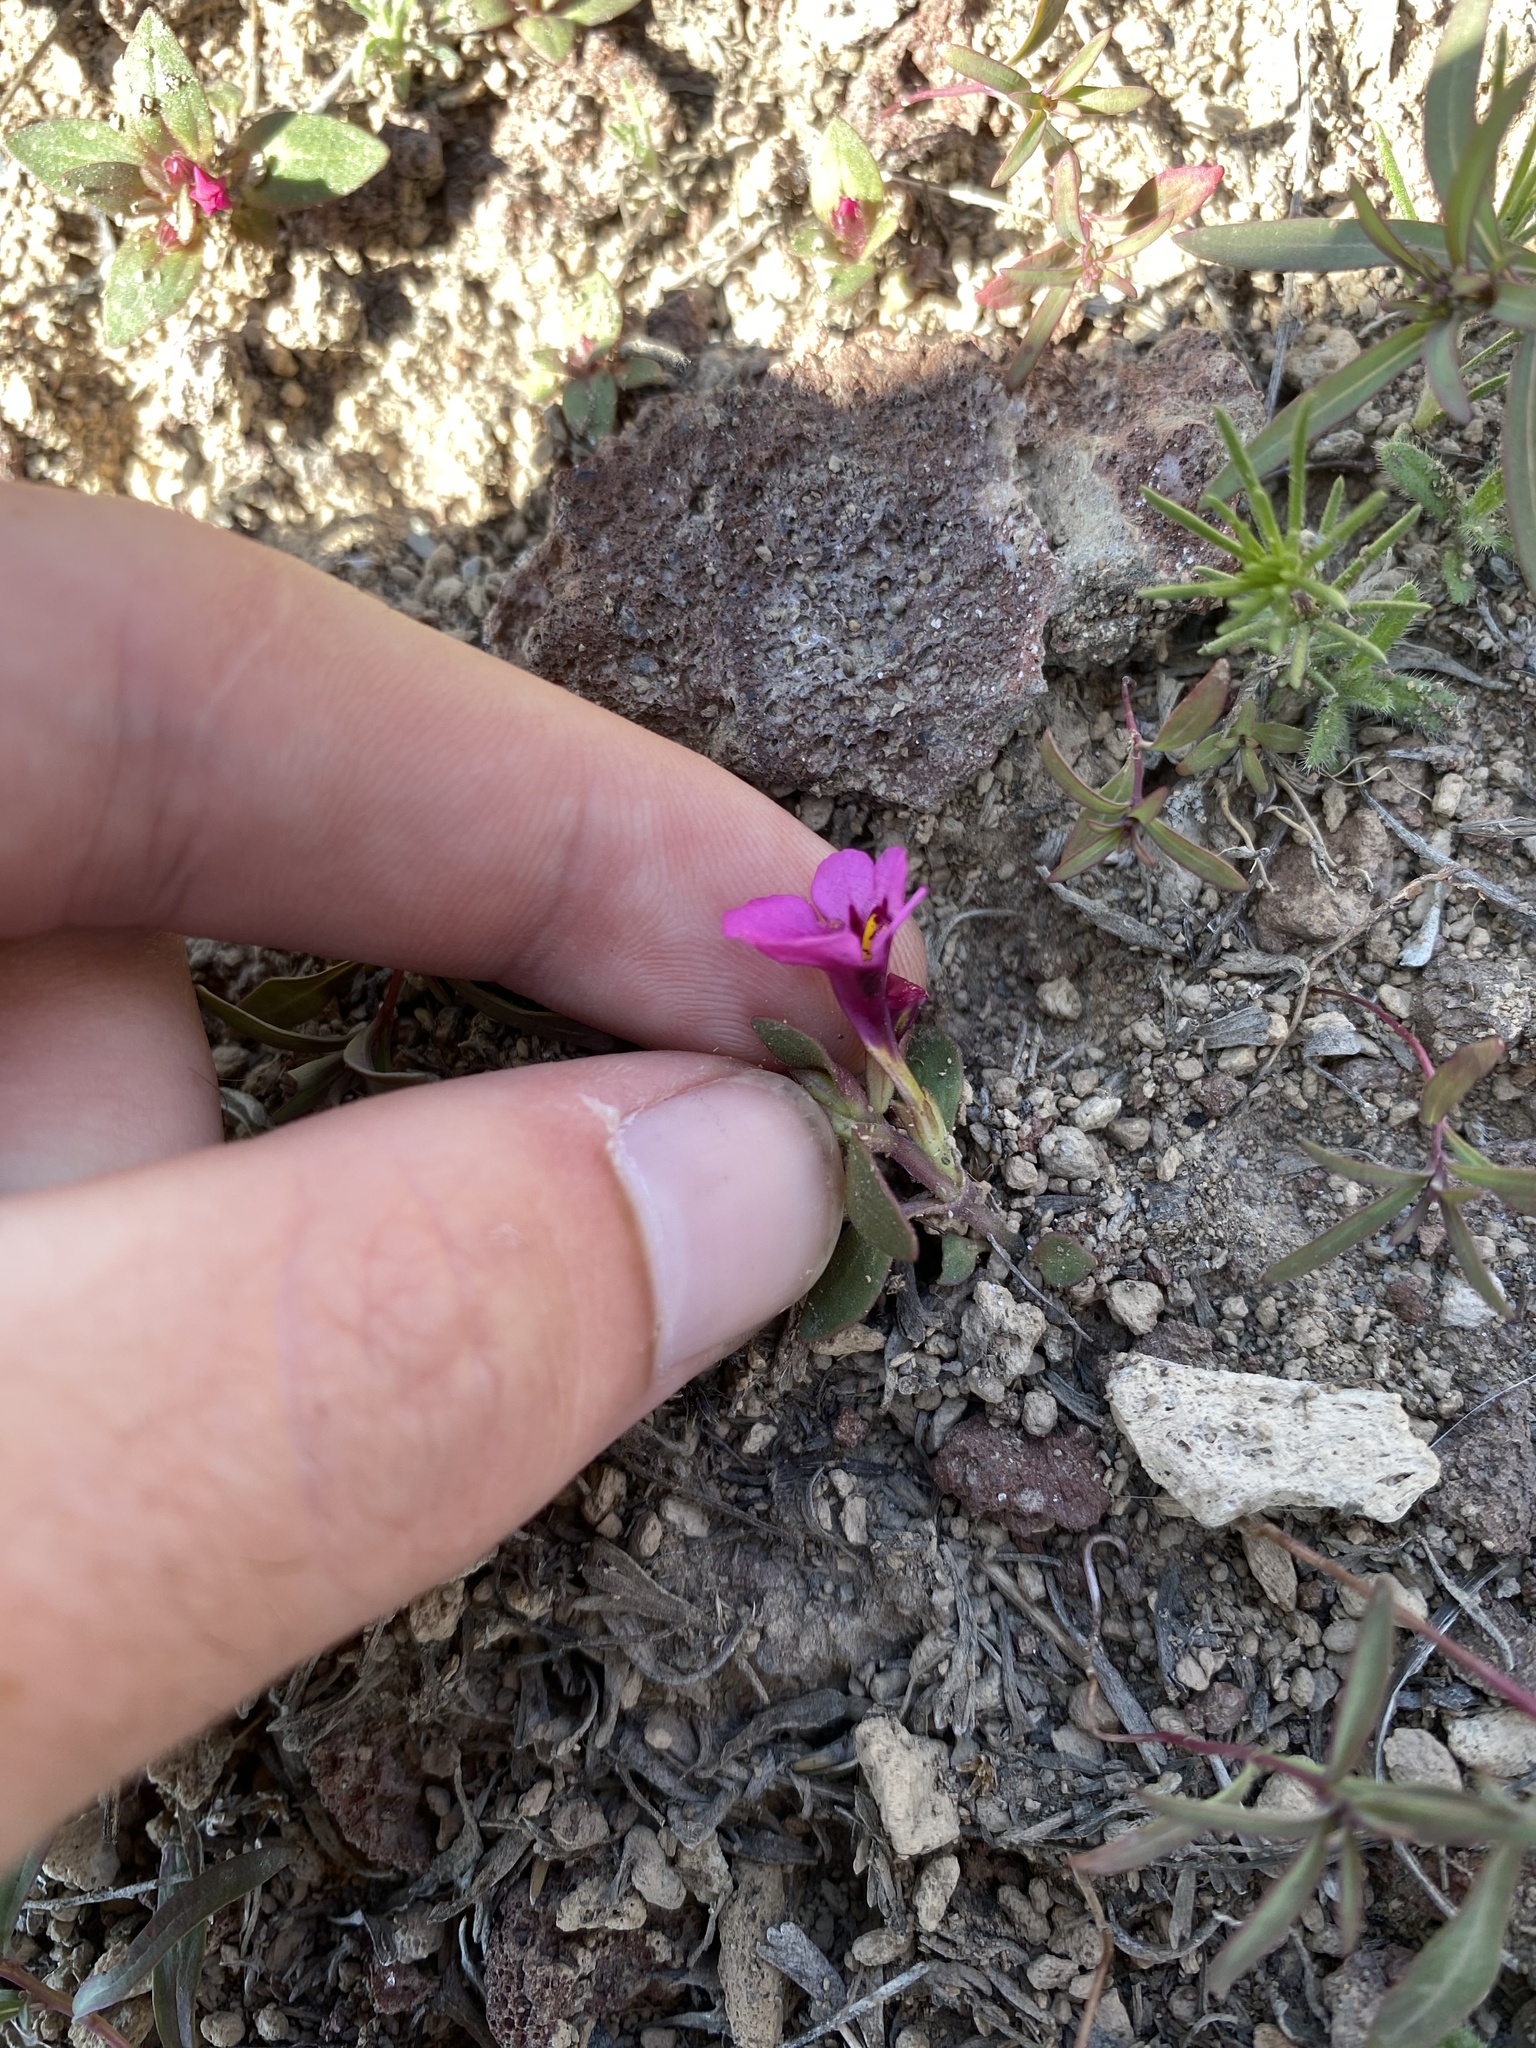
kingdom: Plantae
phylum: Tracheophyta
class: Magnoliopsida
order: Lamiales
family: Phrymaceae
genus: Diplacus
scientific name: Diplacus nanus
